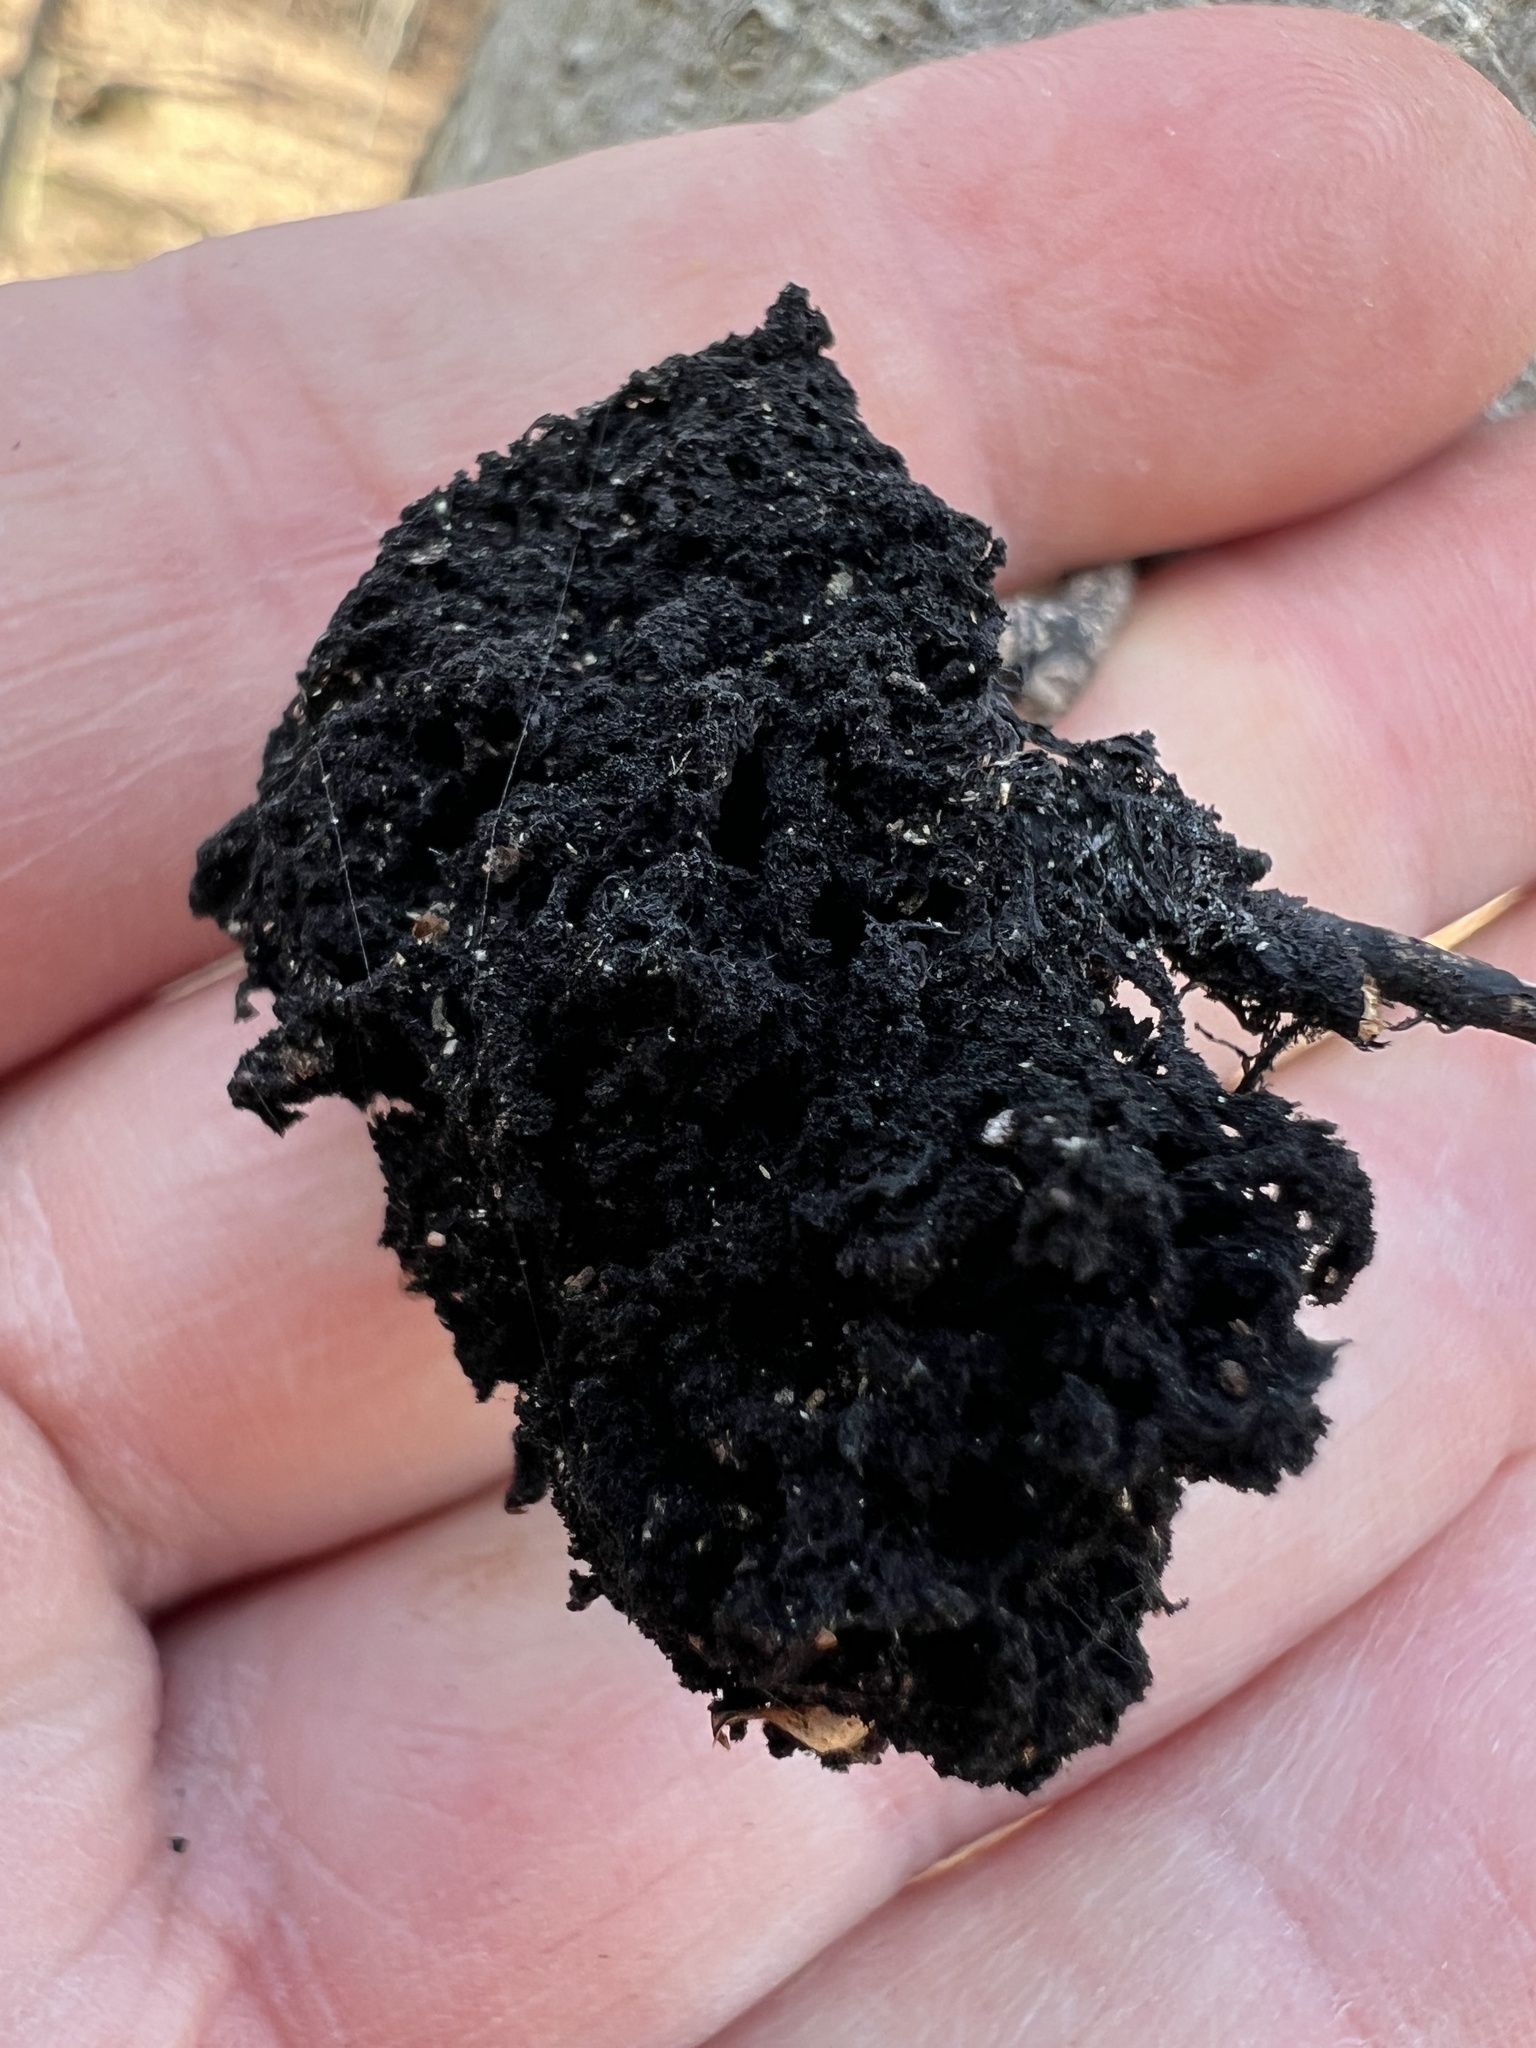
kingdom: Fungi
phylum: Ascomycota
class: Dothideomycetes
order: Capnodiales
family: Capnodiaceae
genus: Scorias
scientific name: Scorias spongiosa
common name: Black sooty mold
